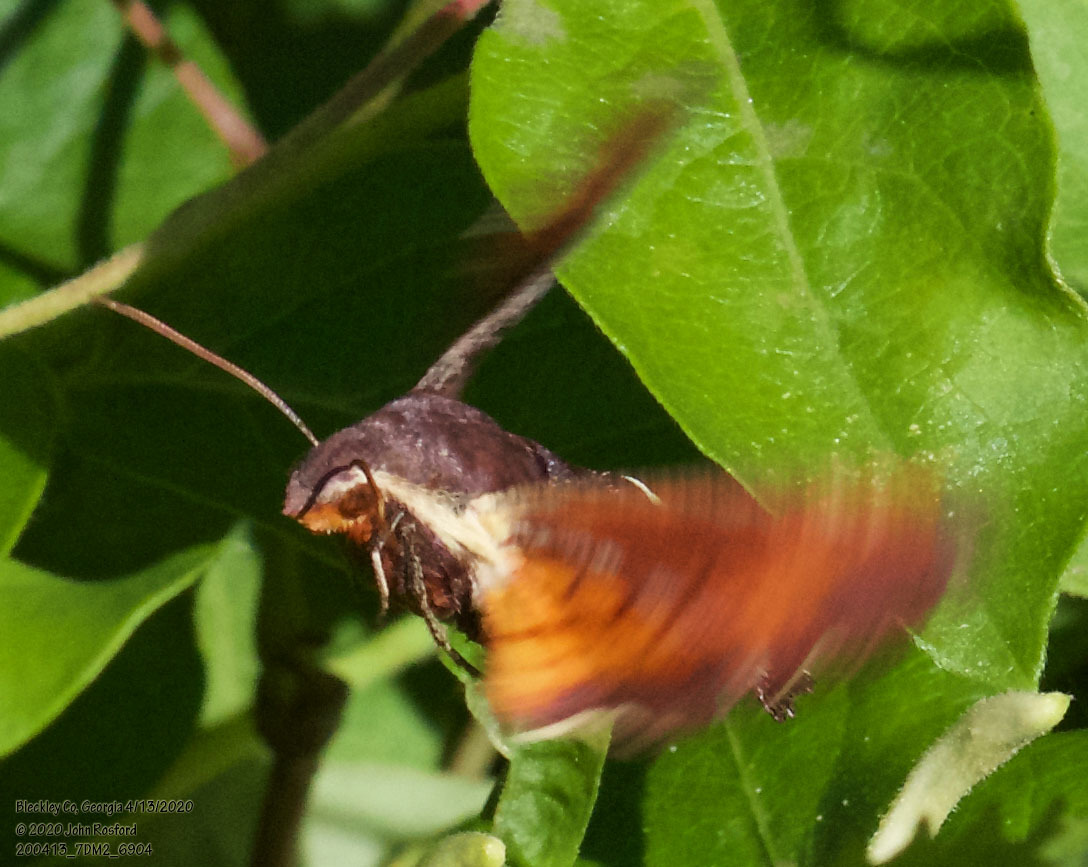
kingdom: Animalia
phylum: Arthropoda
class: Insecta
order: Lepidoptera
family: Sphingidae
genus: Amphion
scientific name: Amphion floridensis
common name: Nessus sphinx
